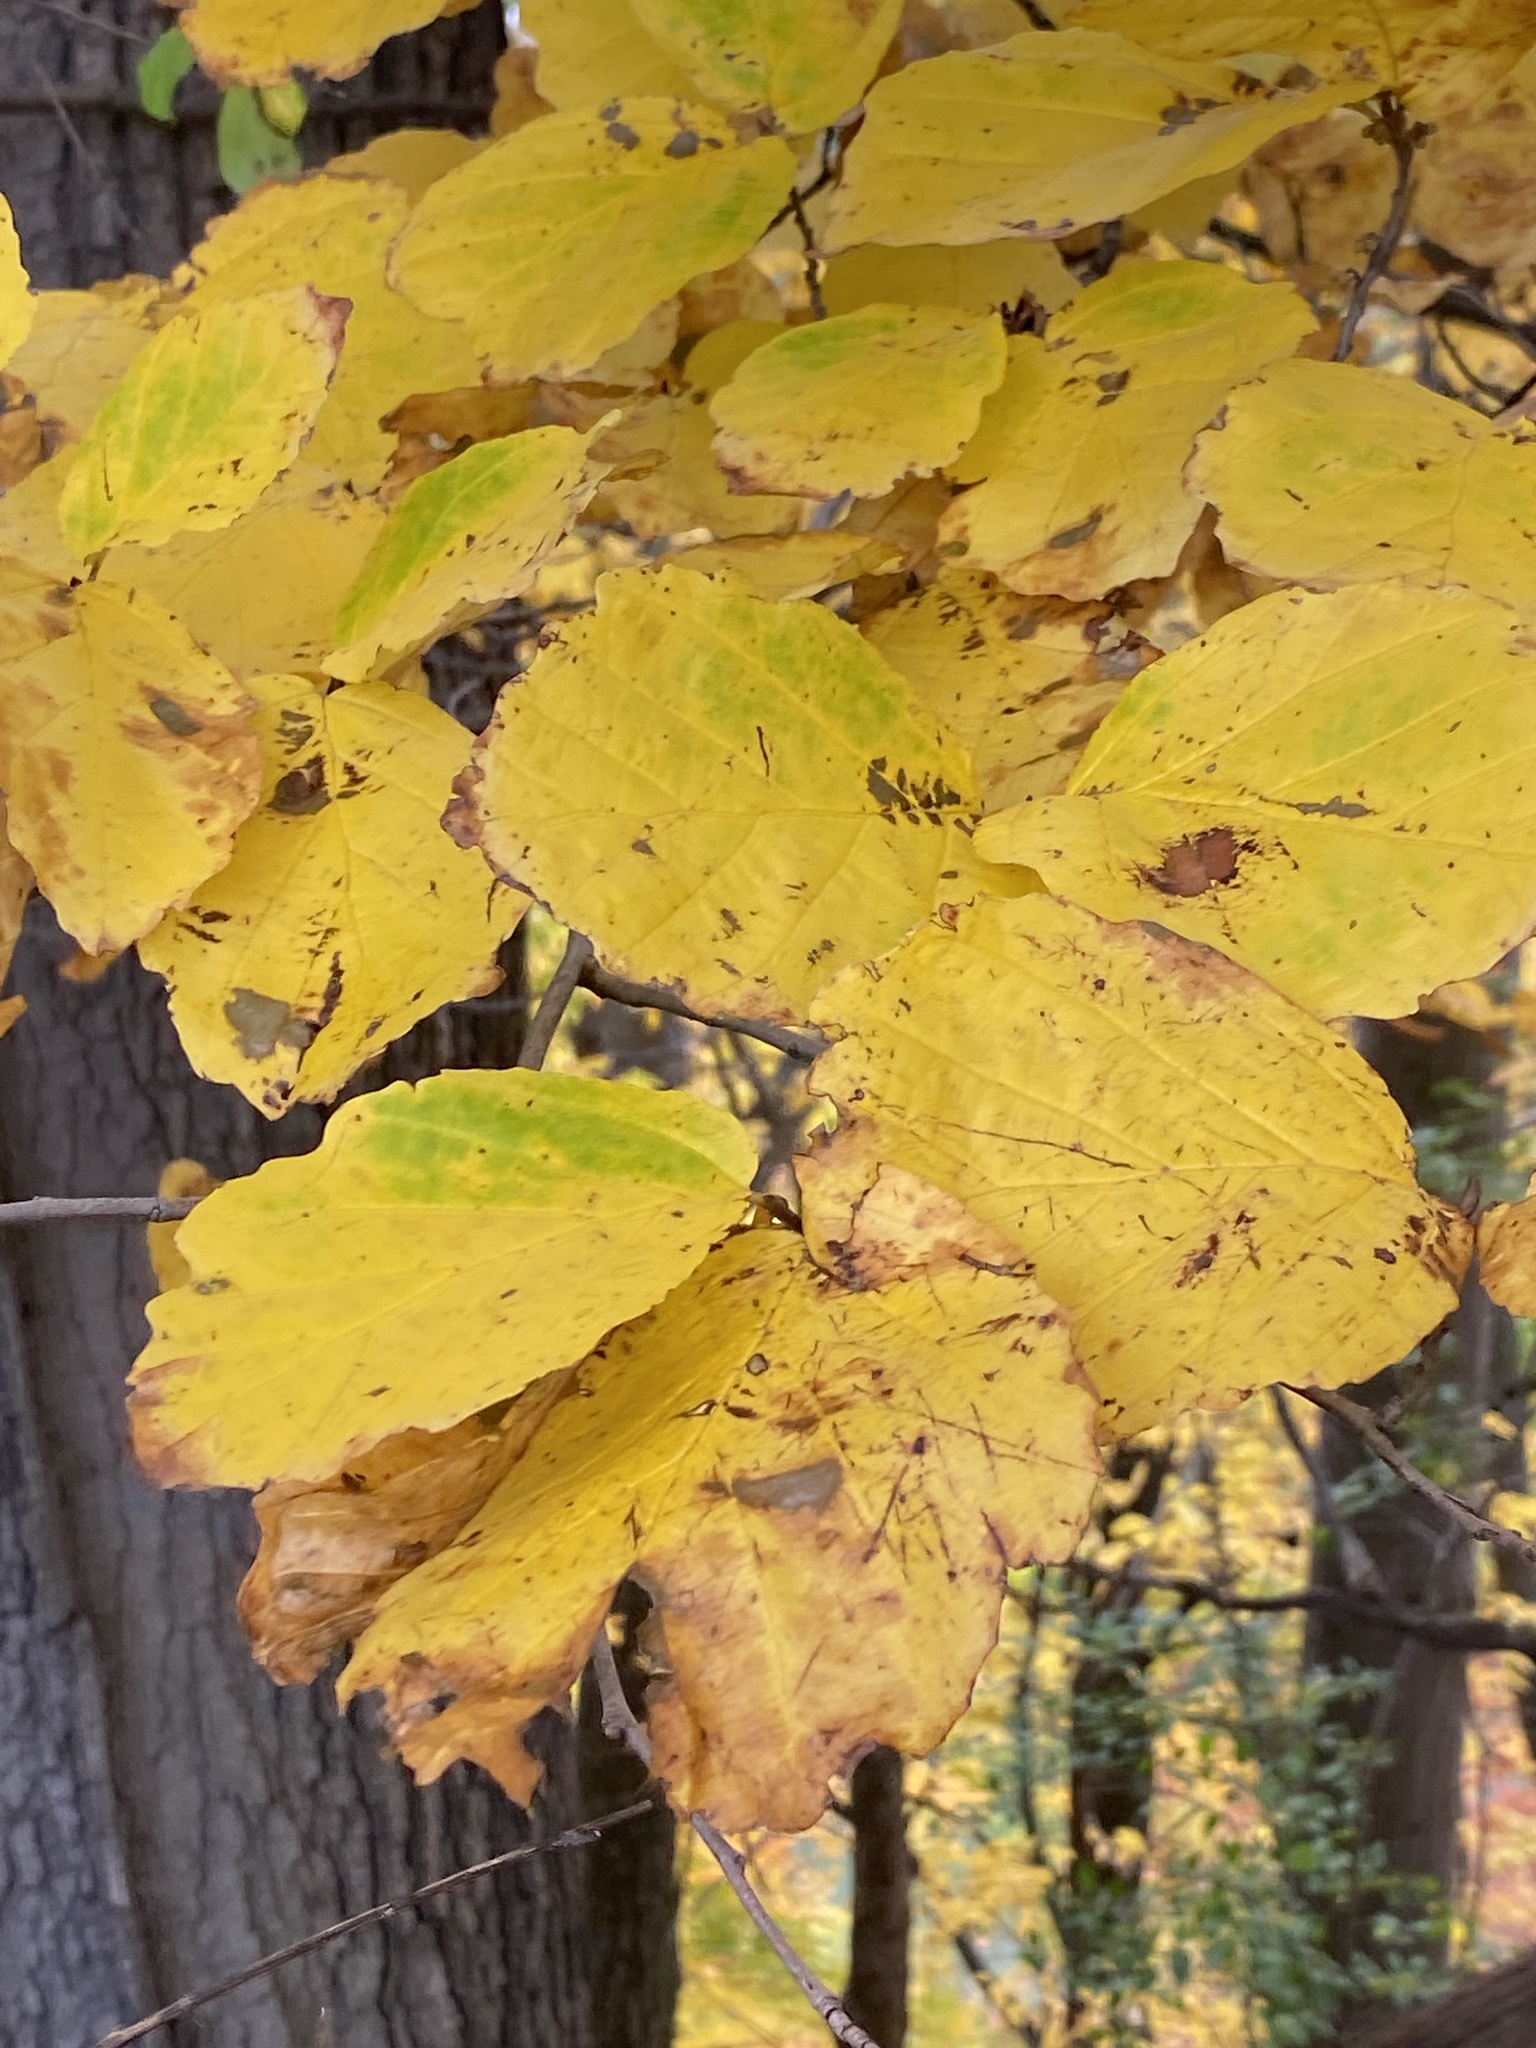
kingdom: Plantae
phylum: Tracheophyta
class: Magnoliopsida
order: Saxifragales
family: Hamamelidaceae
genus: Hamamelis
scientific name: Hamamelis virginiana
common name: Witch-hazel
